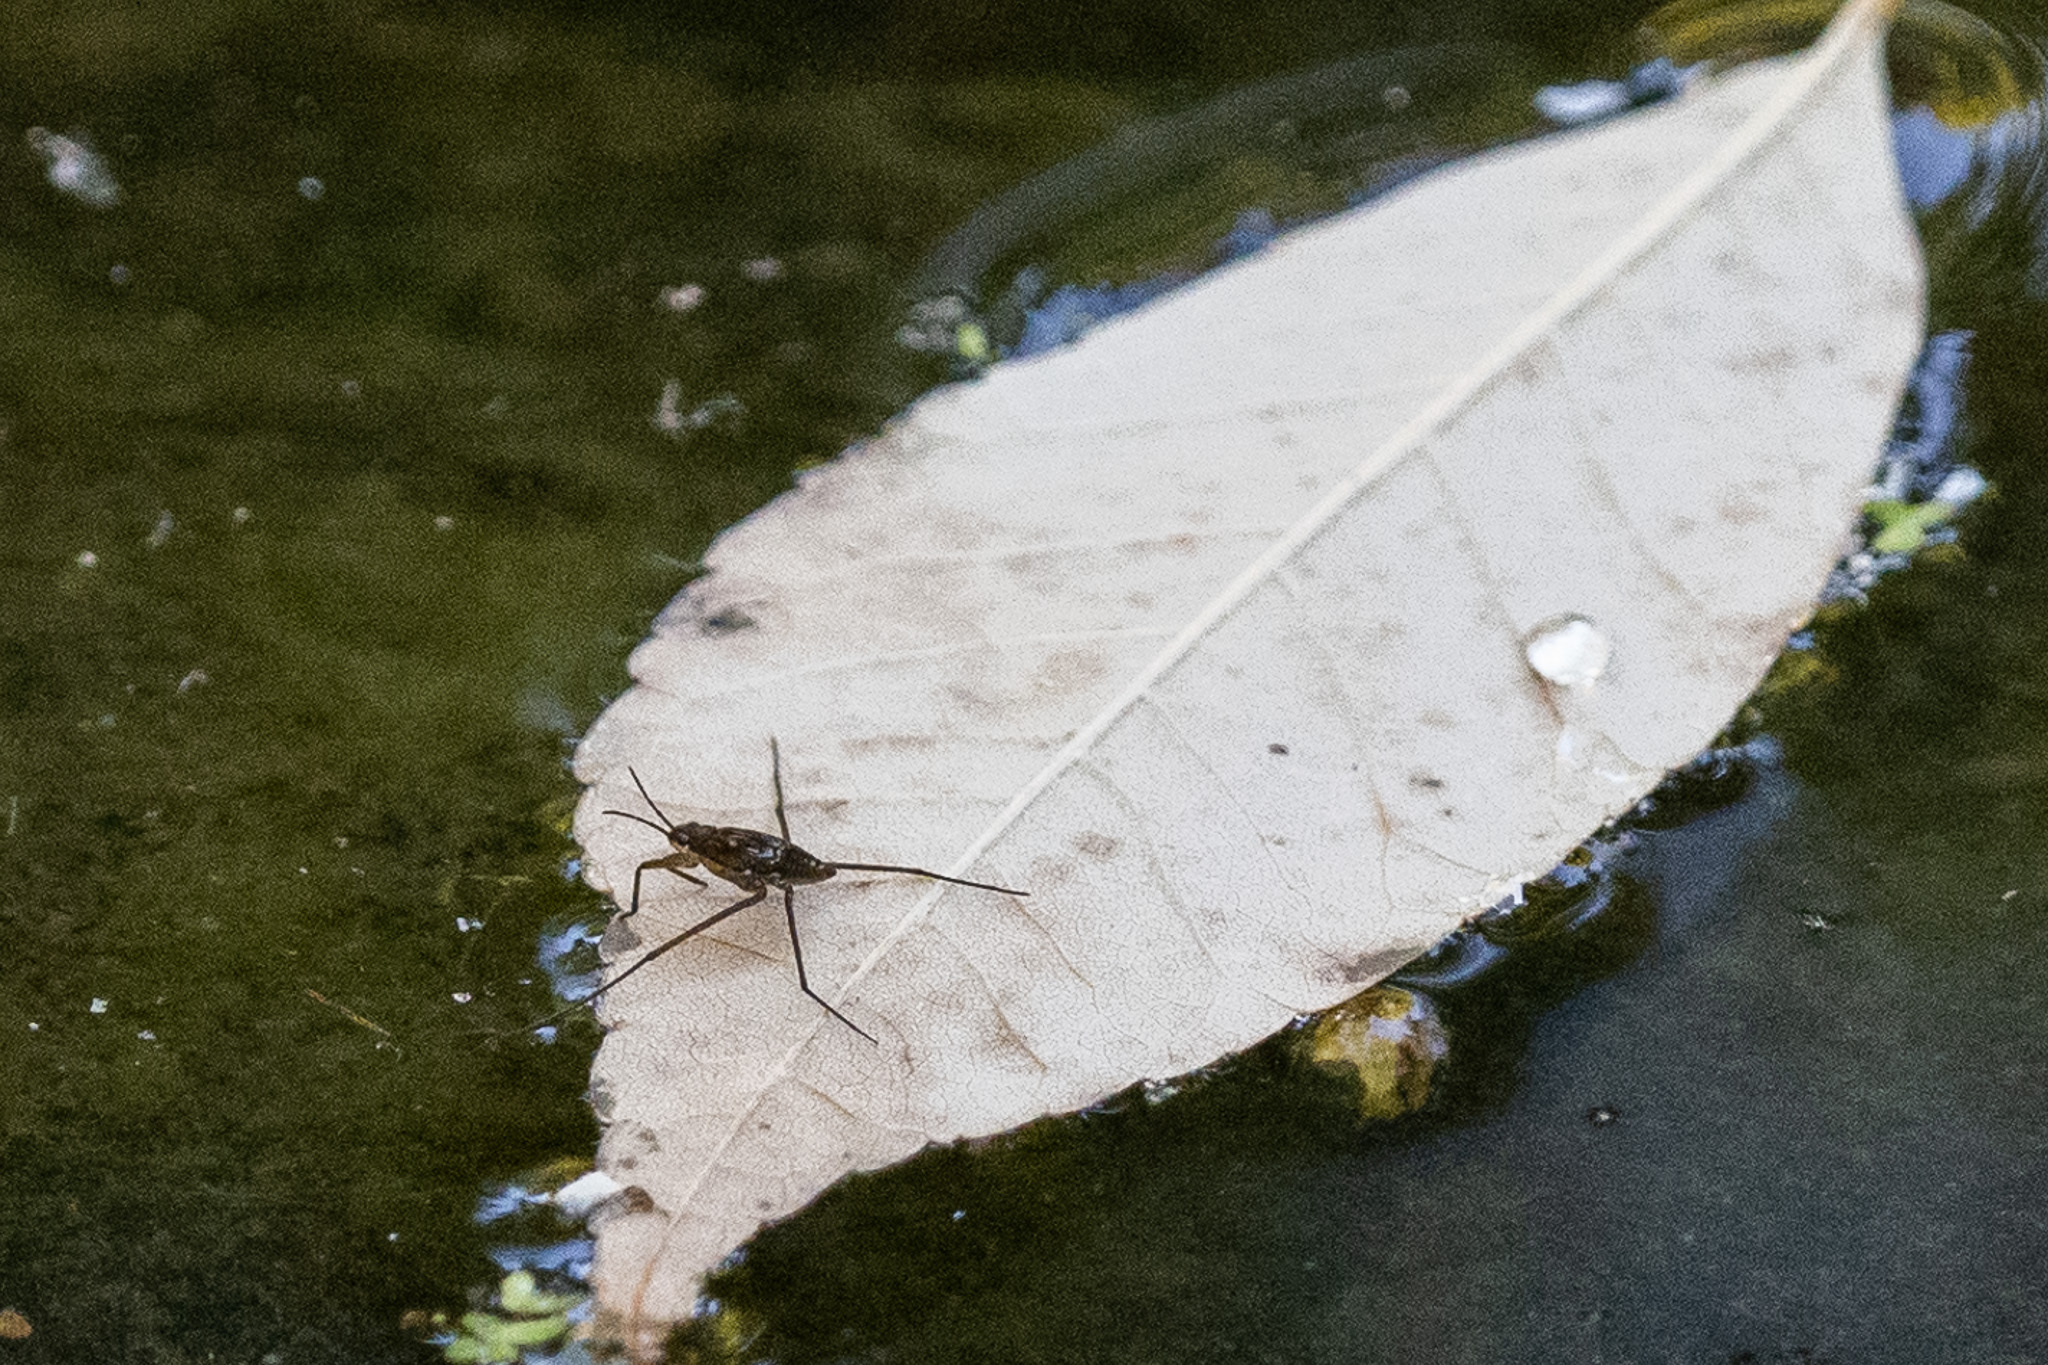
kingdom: Animalia
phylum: Arthropoda
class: Insecta
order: Hemiptera
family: Gerridae
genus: Aquarius
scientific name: Aquarius remigis
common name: Common water strider
